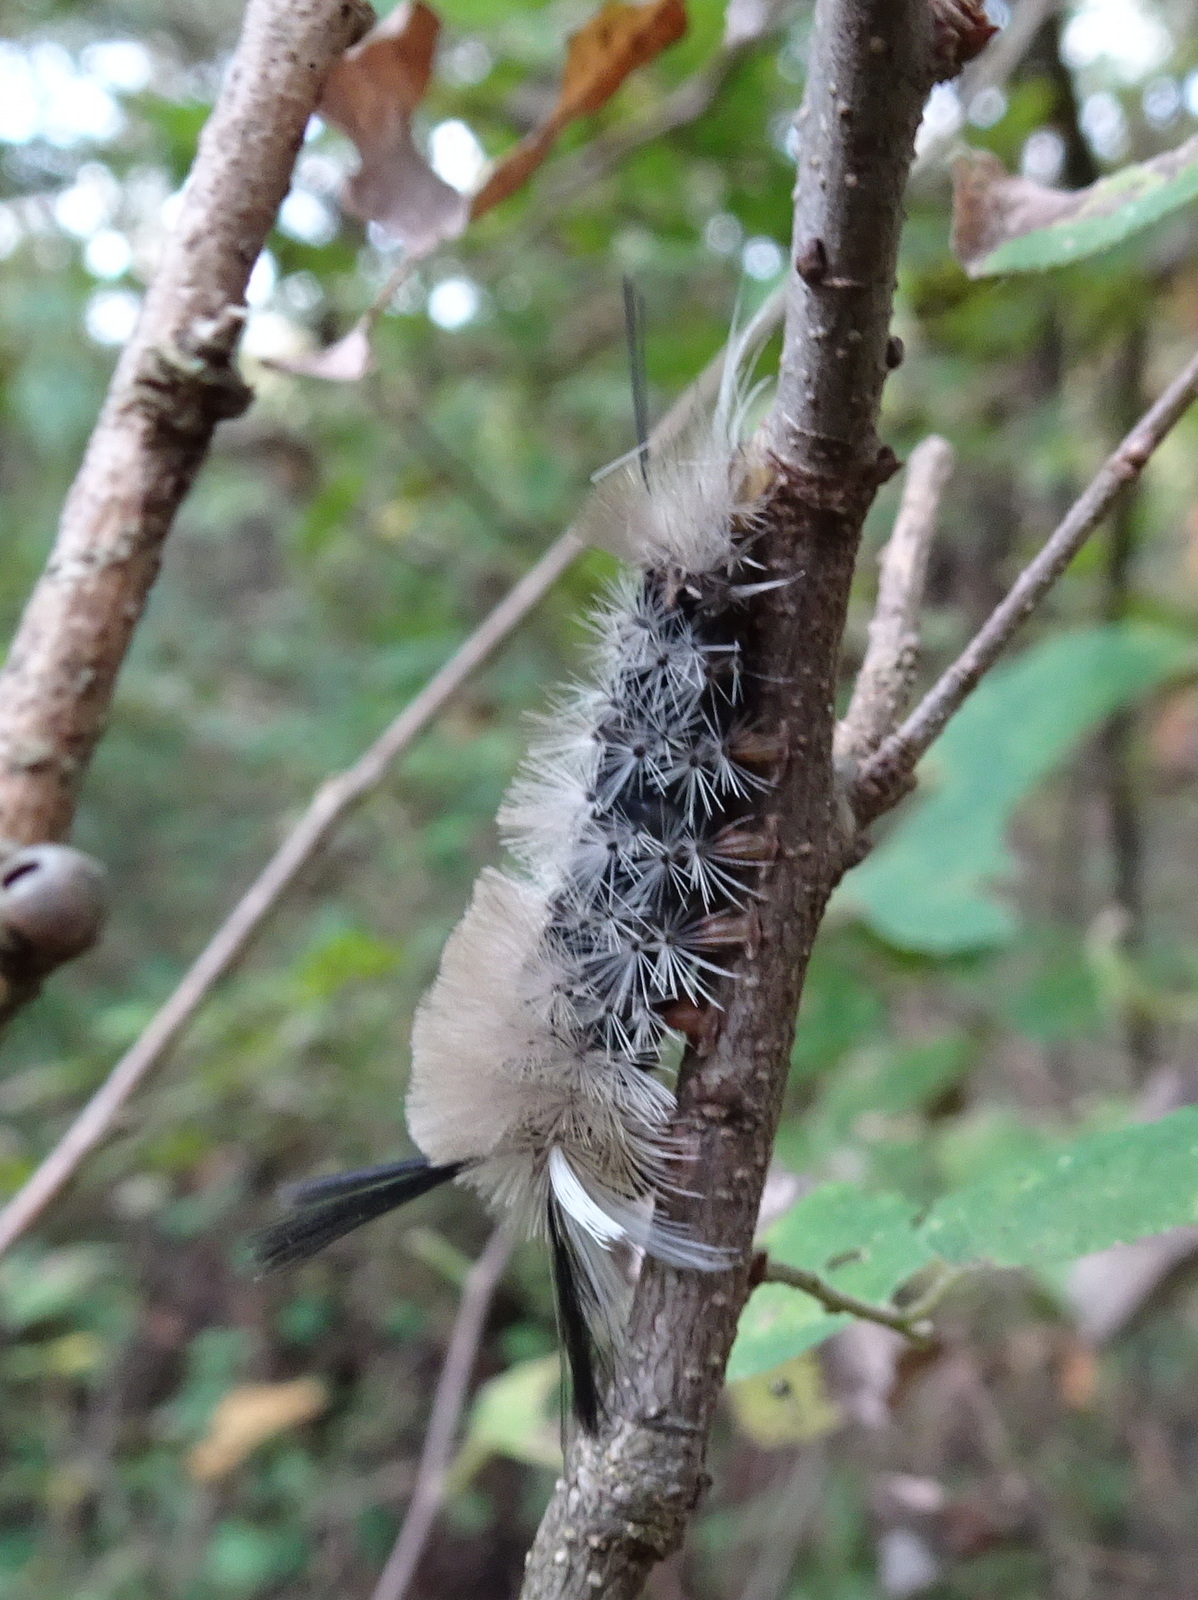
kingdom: Animalia
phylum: Arthropoda
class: Insecta
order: Lepidoptera
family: Erebidae
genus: Halysidota
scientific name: Halysidota tessellaris
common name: Banded tussock moth
